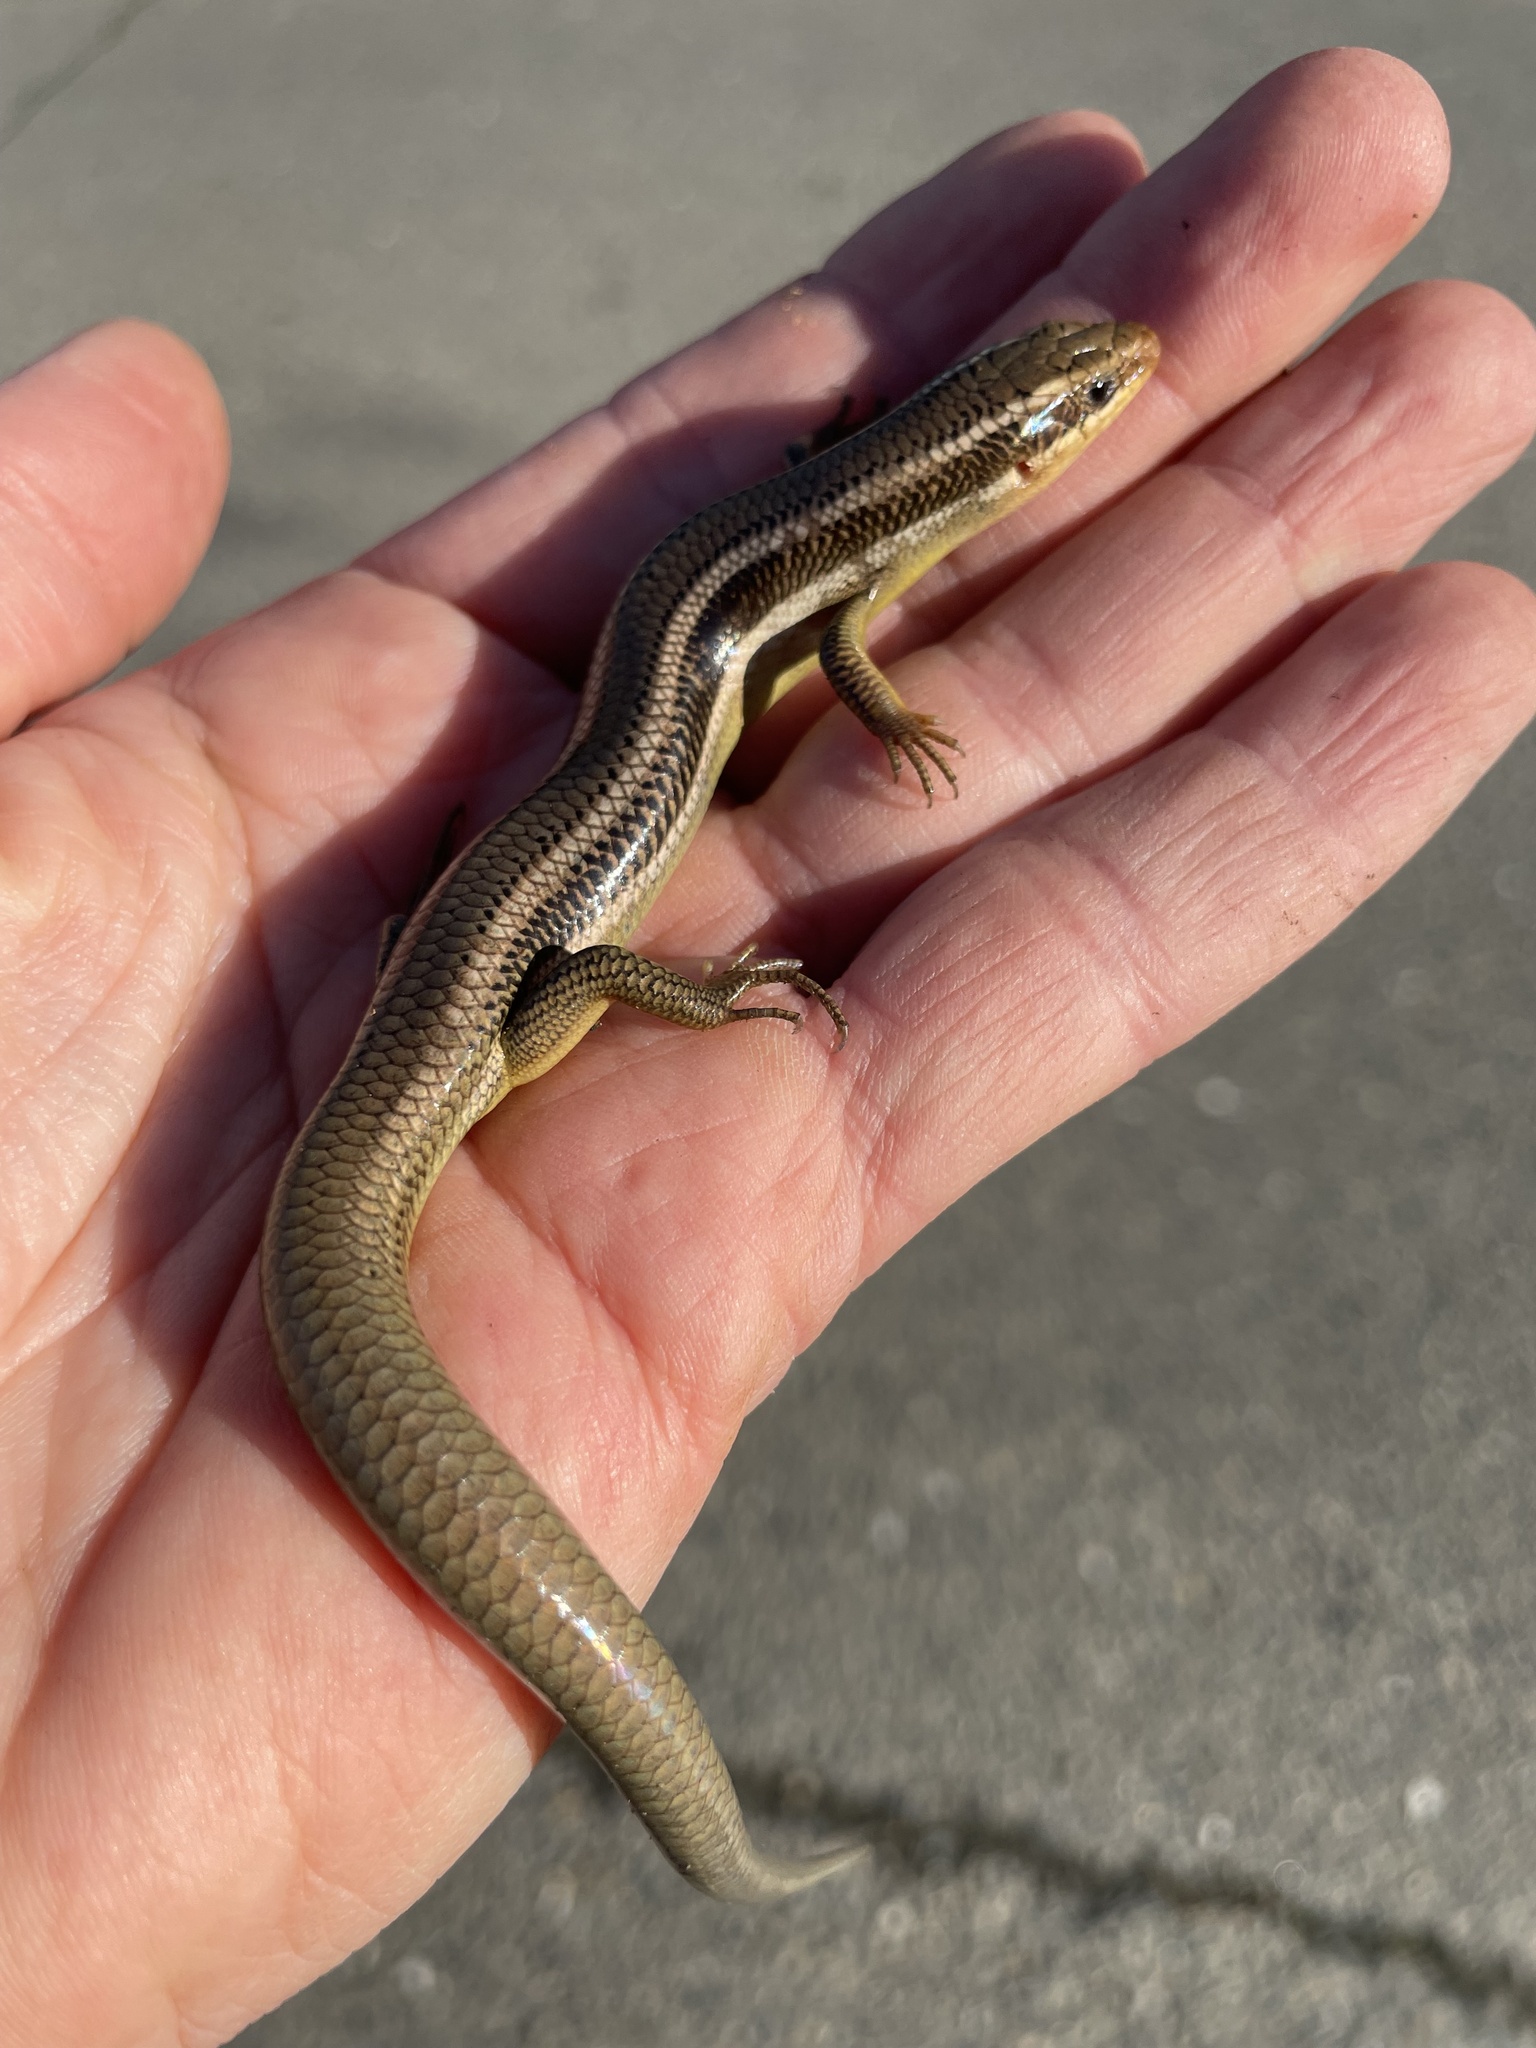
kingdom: Animalia
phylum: Chordata
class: Squamata
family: Scincidae
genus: Plestiodon
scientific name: Plestiodon gilberti
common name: Gilbert's skink
